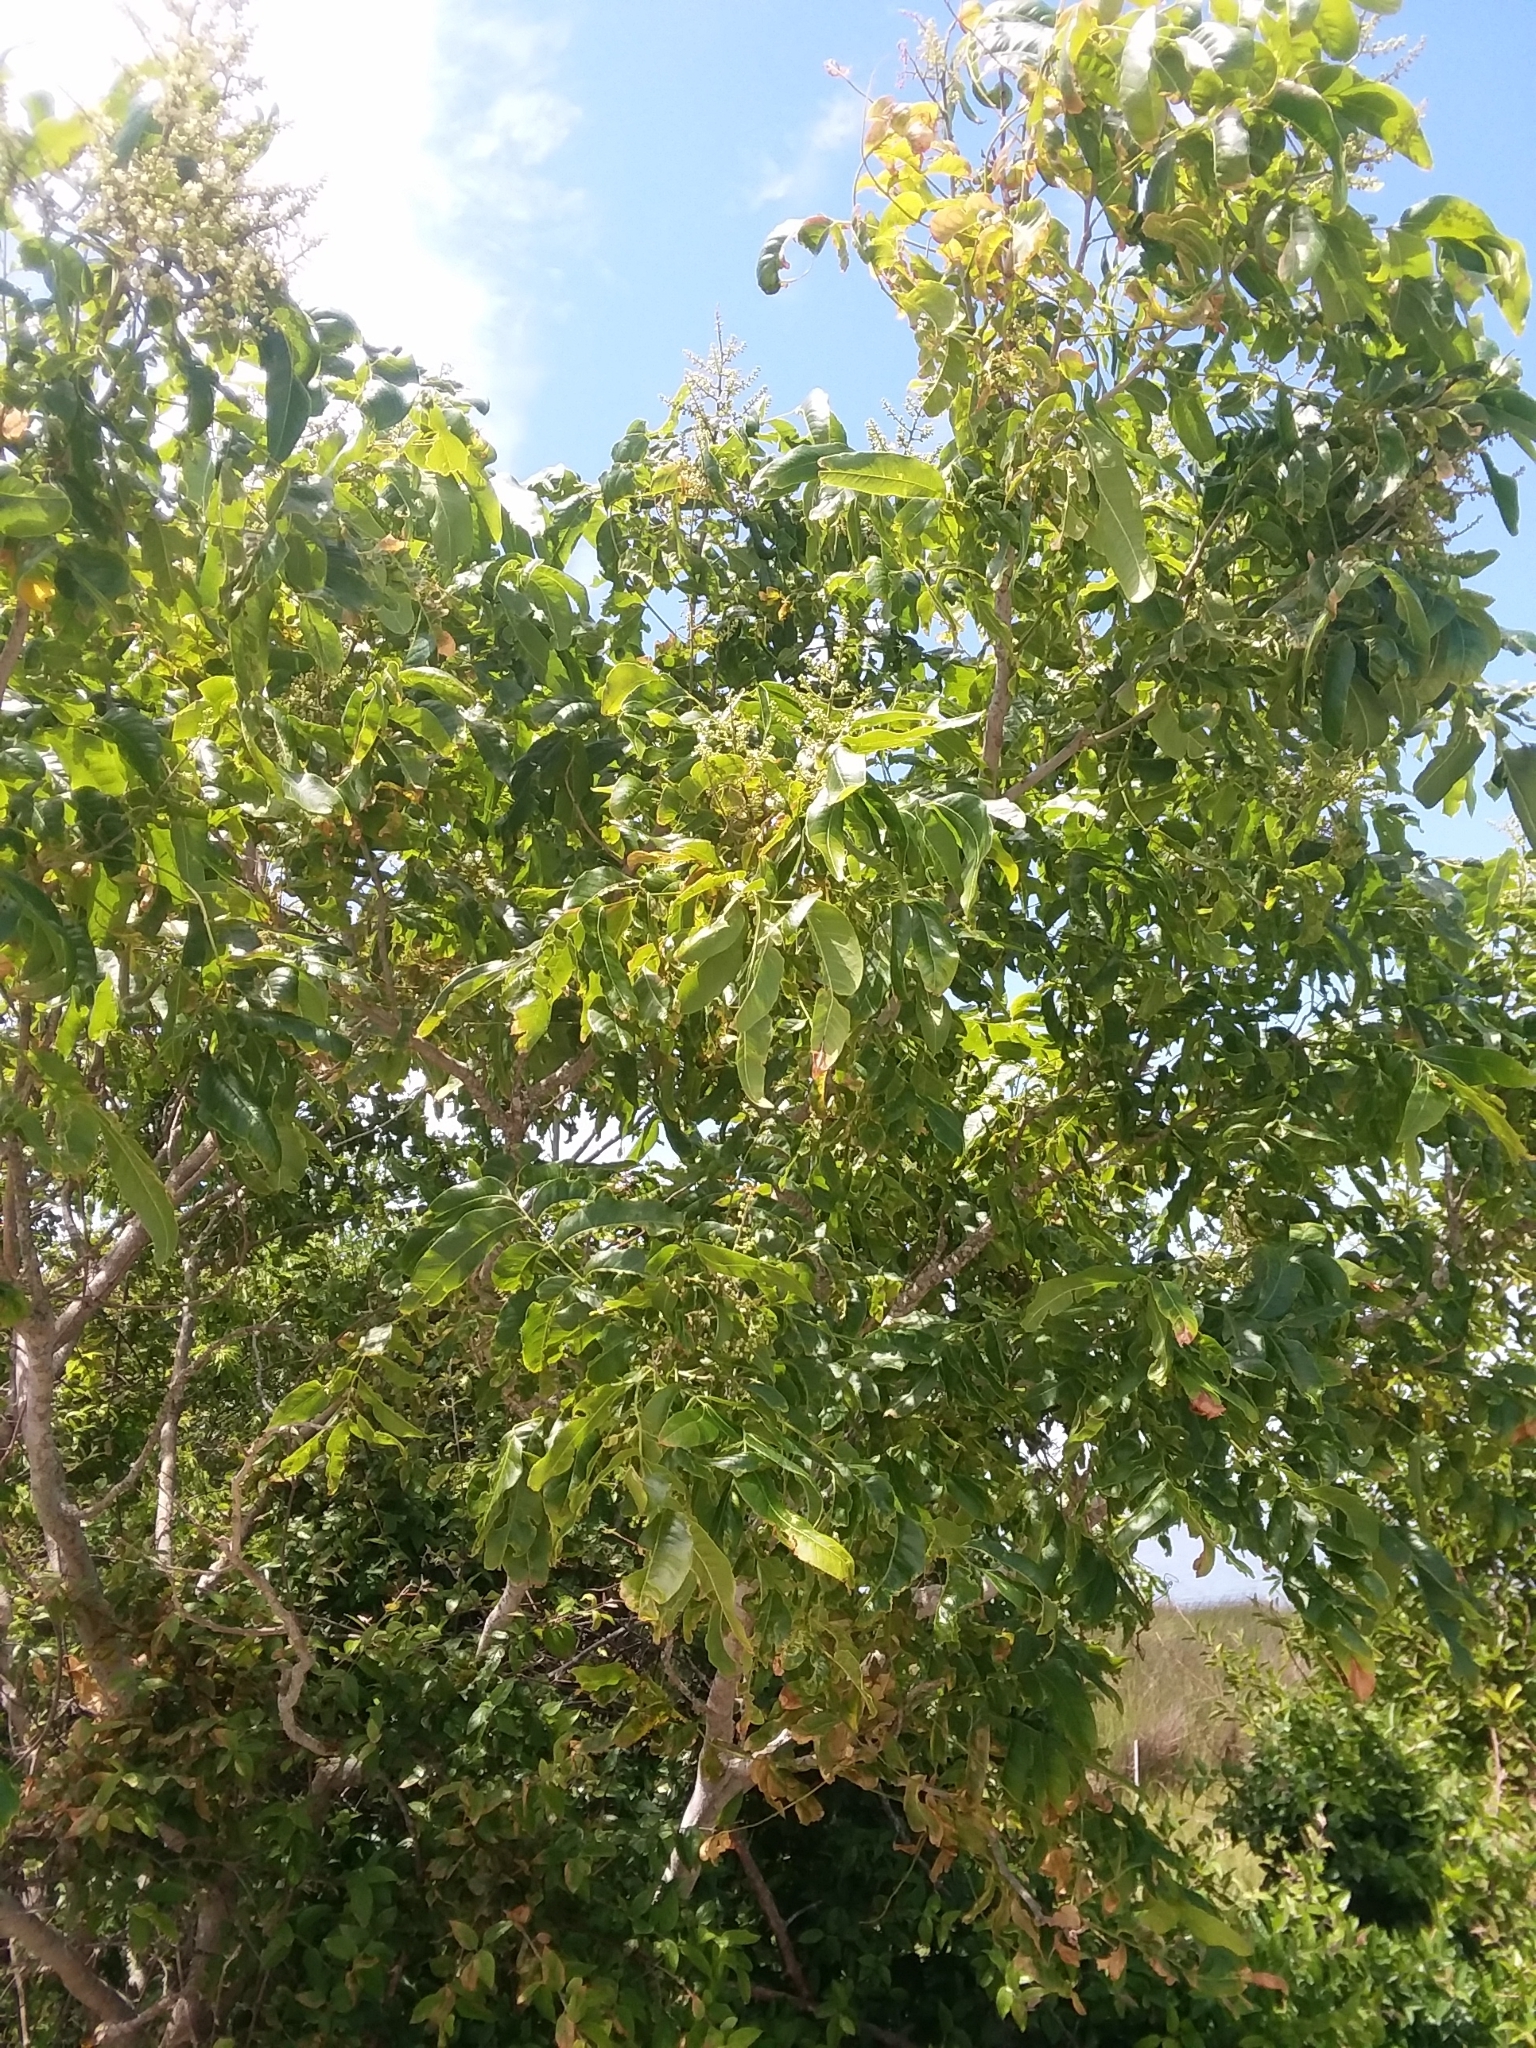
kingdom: Plantae
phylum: Tracheophyta
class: Magnoliopsida
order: Sapindales
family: Sapindaceae
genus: Sapindus
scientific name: Sapindus saponaria
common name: Wingleaf soapberry
